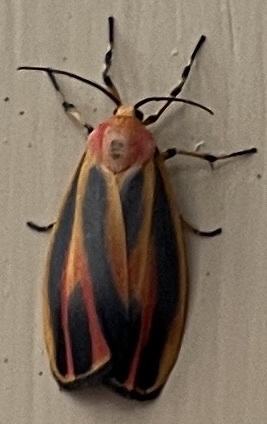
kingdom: Animalia
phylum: Arthropoda
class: Insecta
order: Lepidoptera
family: Erebidae
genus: Hypoprepia
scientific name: Hypoprepia fucosa
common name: Painted lichen moth
